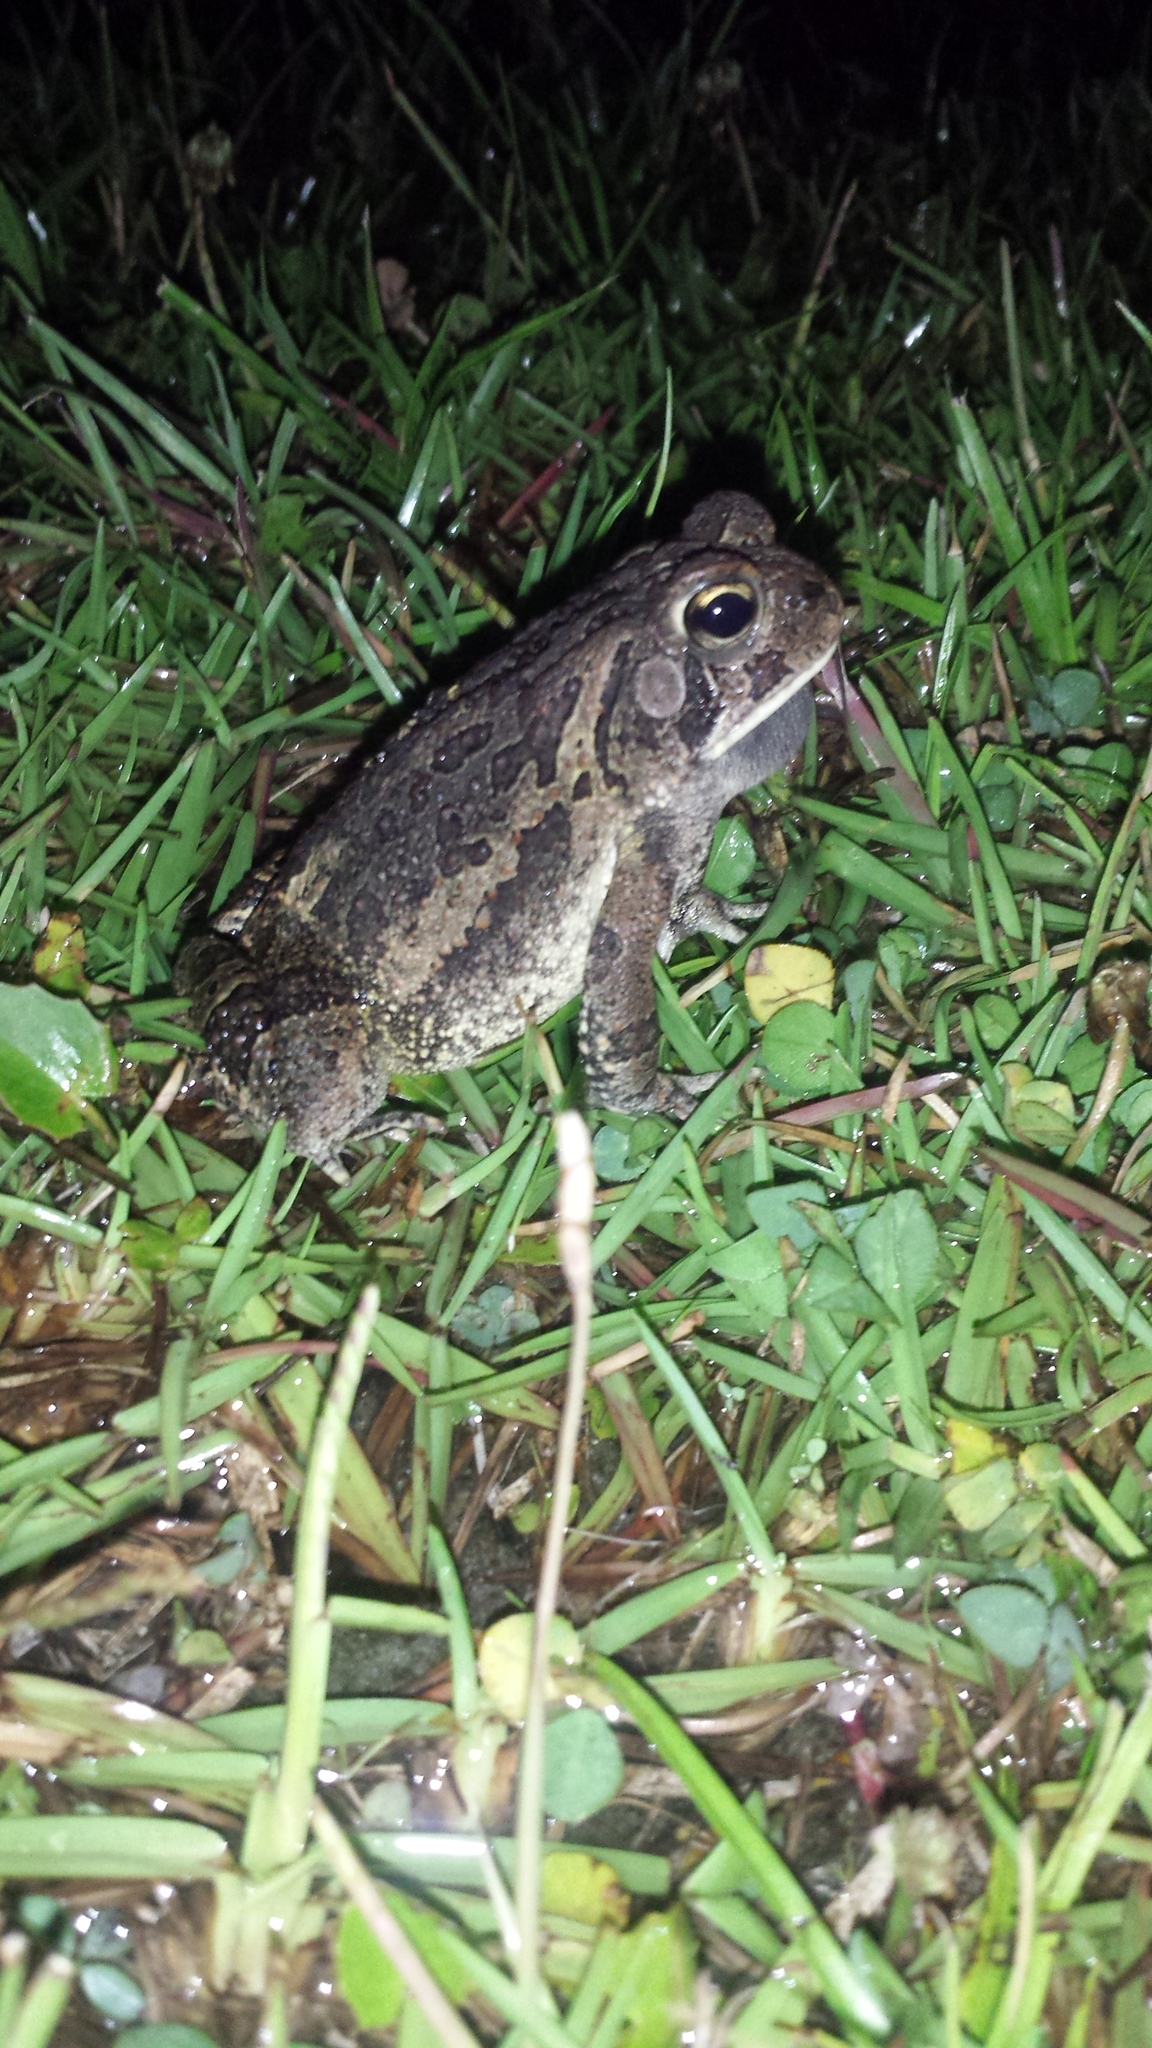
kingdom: Animalia
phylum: Chordata
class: Amphibia
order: Anura
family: Bufonidae
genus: Anaxyrus
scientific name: Anaxyrus fowleri
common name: Fowler's toad
